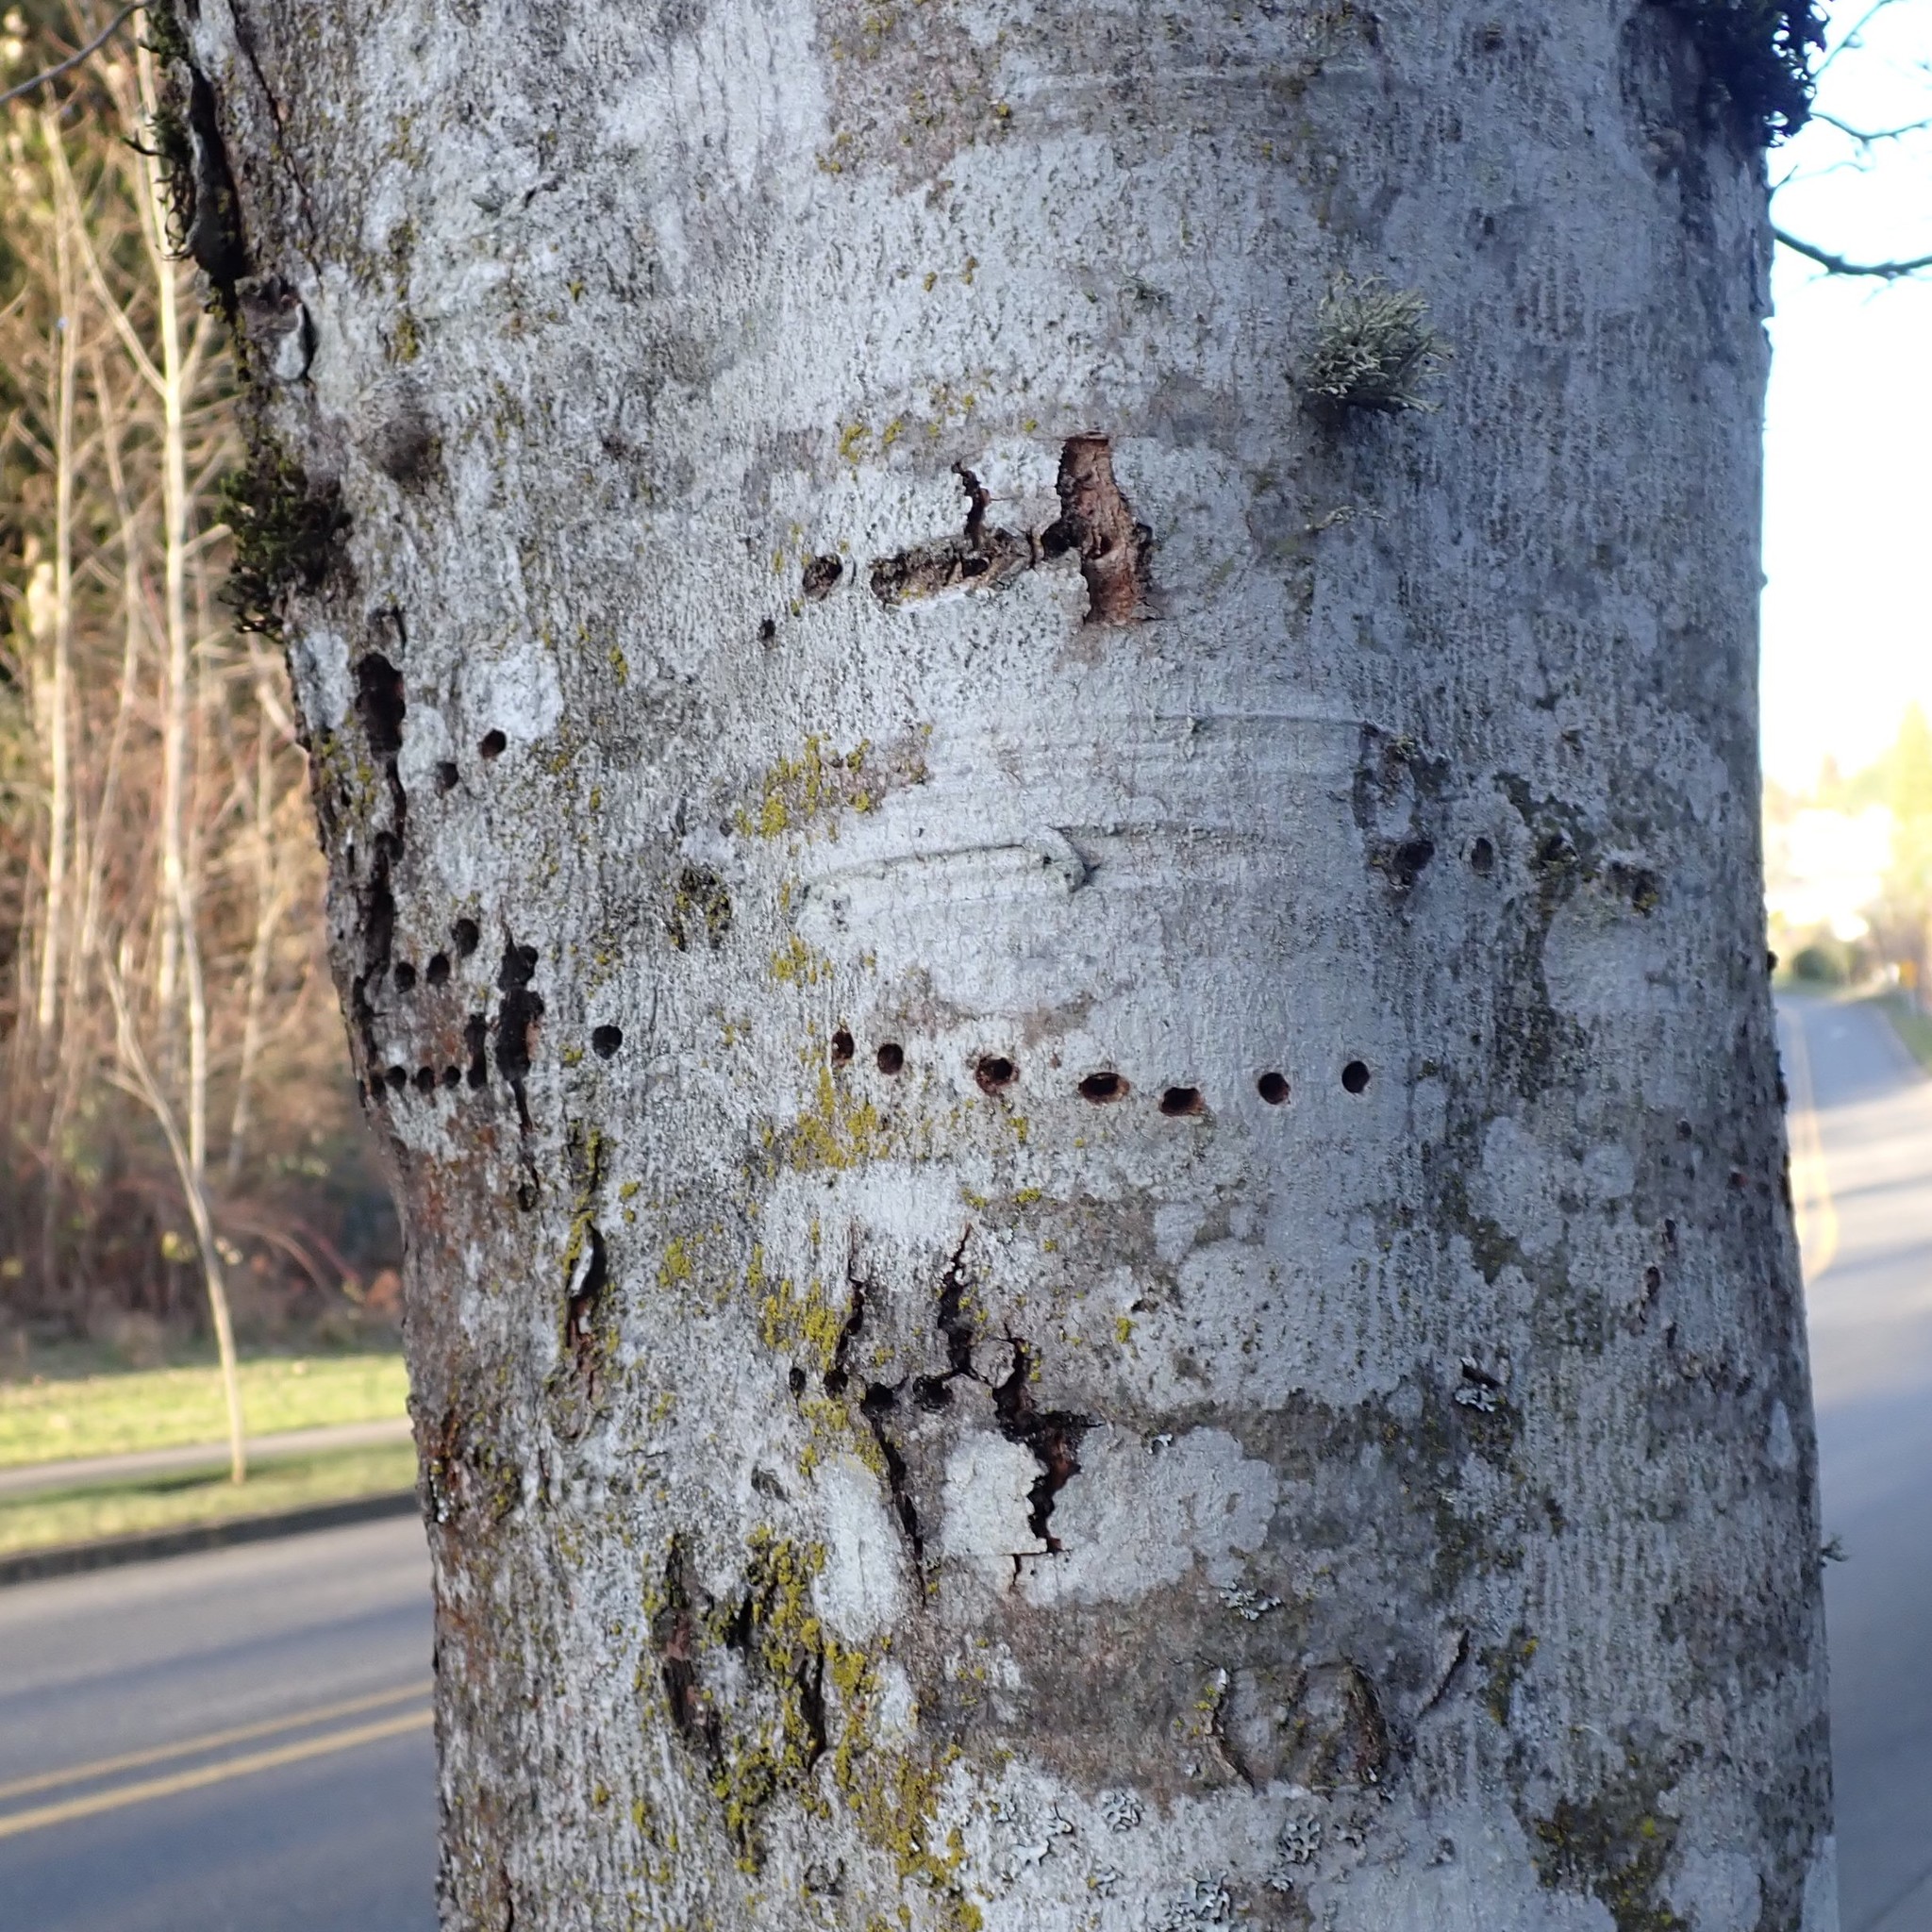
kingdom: Animalia
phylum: Chordata
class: Aves
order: Piciformes
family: Picidae
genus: Sphyrapicus
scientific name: Sphyrapicus ruber
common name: Red-breasted sapsucker
